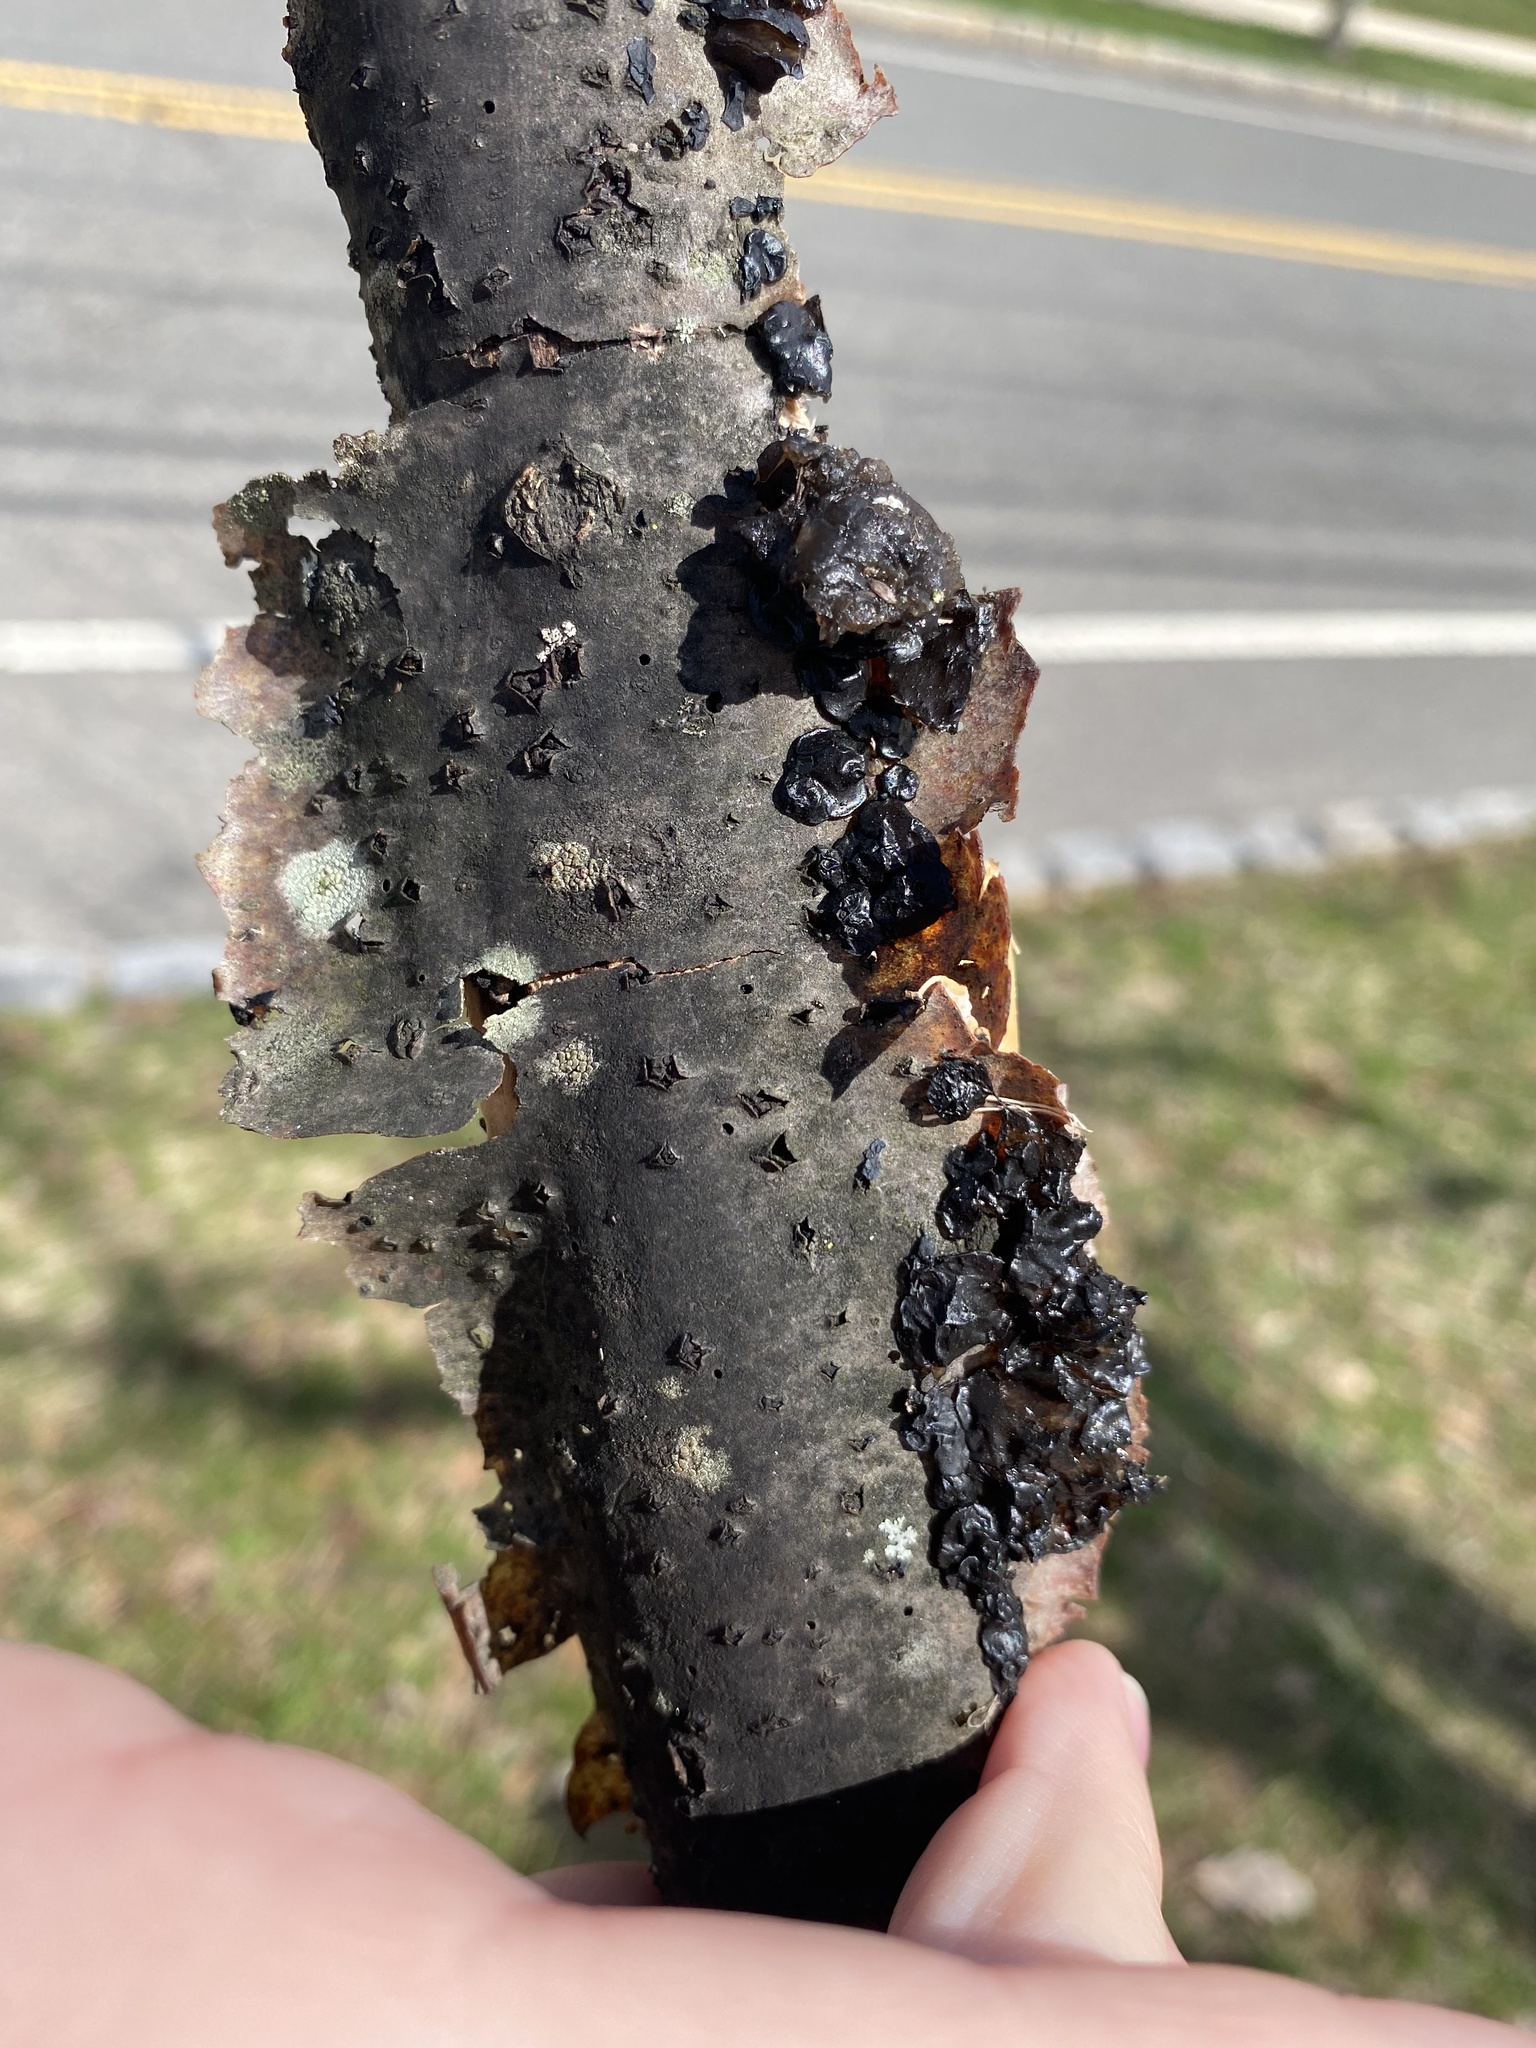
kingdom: Fungi
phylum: Basidiomycota
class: Agaricomycetes
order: Auriculariales
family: Auriculariaceae
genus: Exidia
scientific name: Exidia glandulosa
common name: Witches' butter
